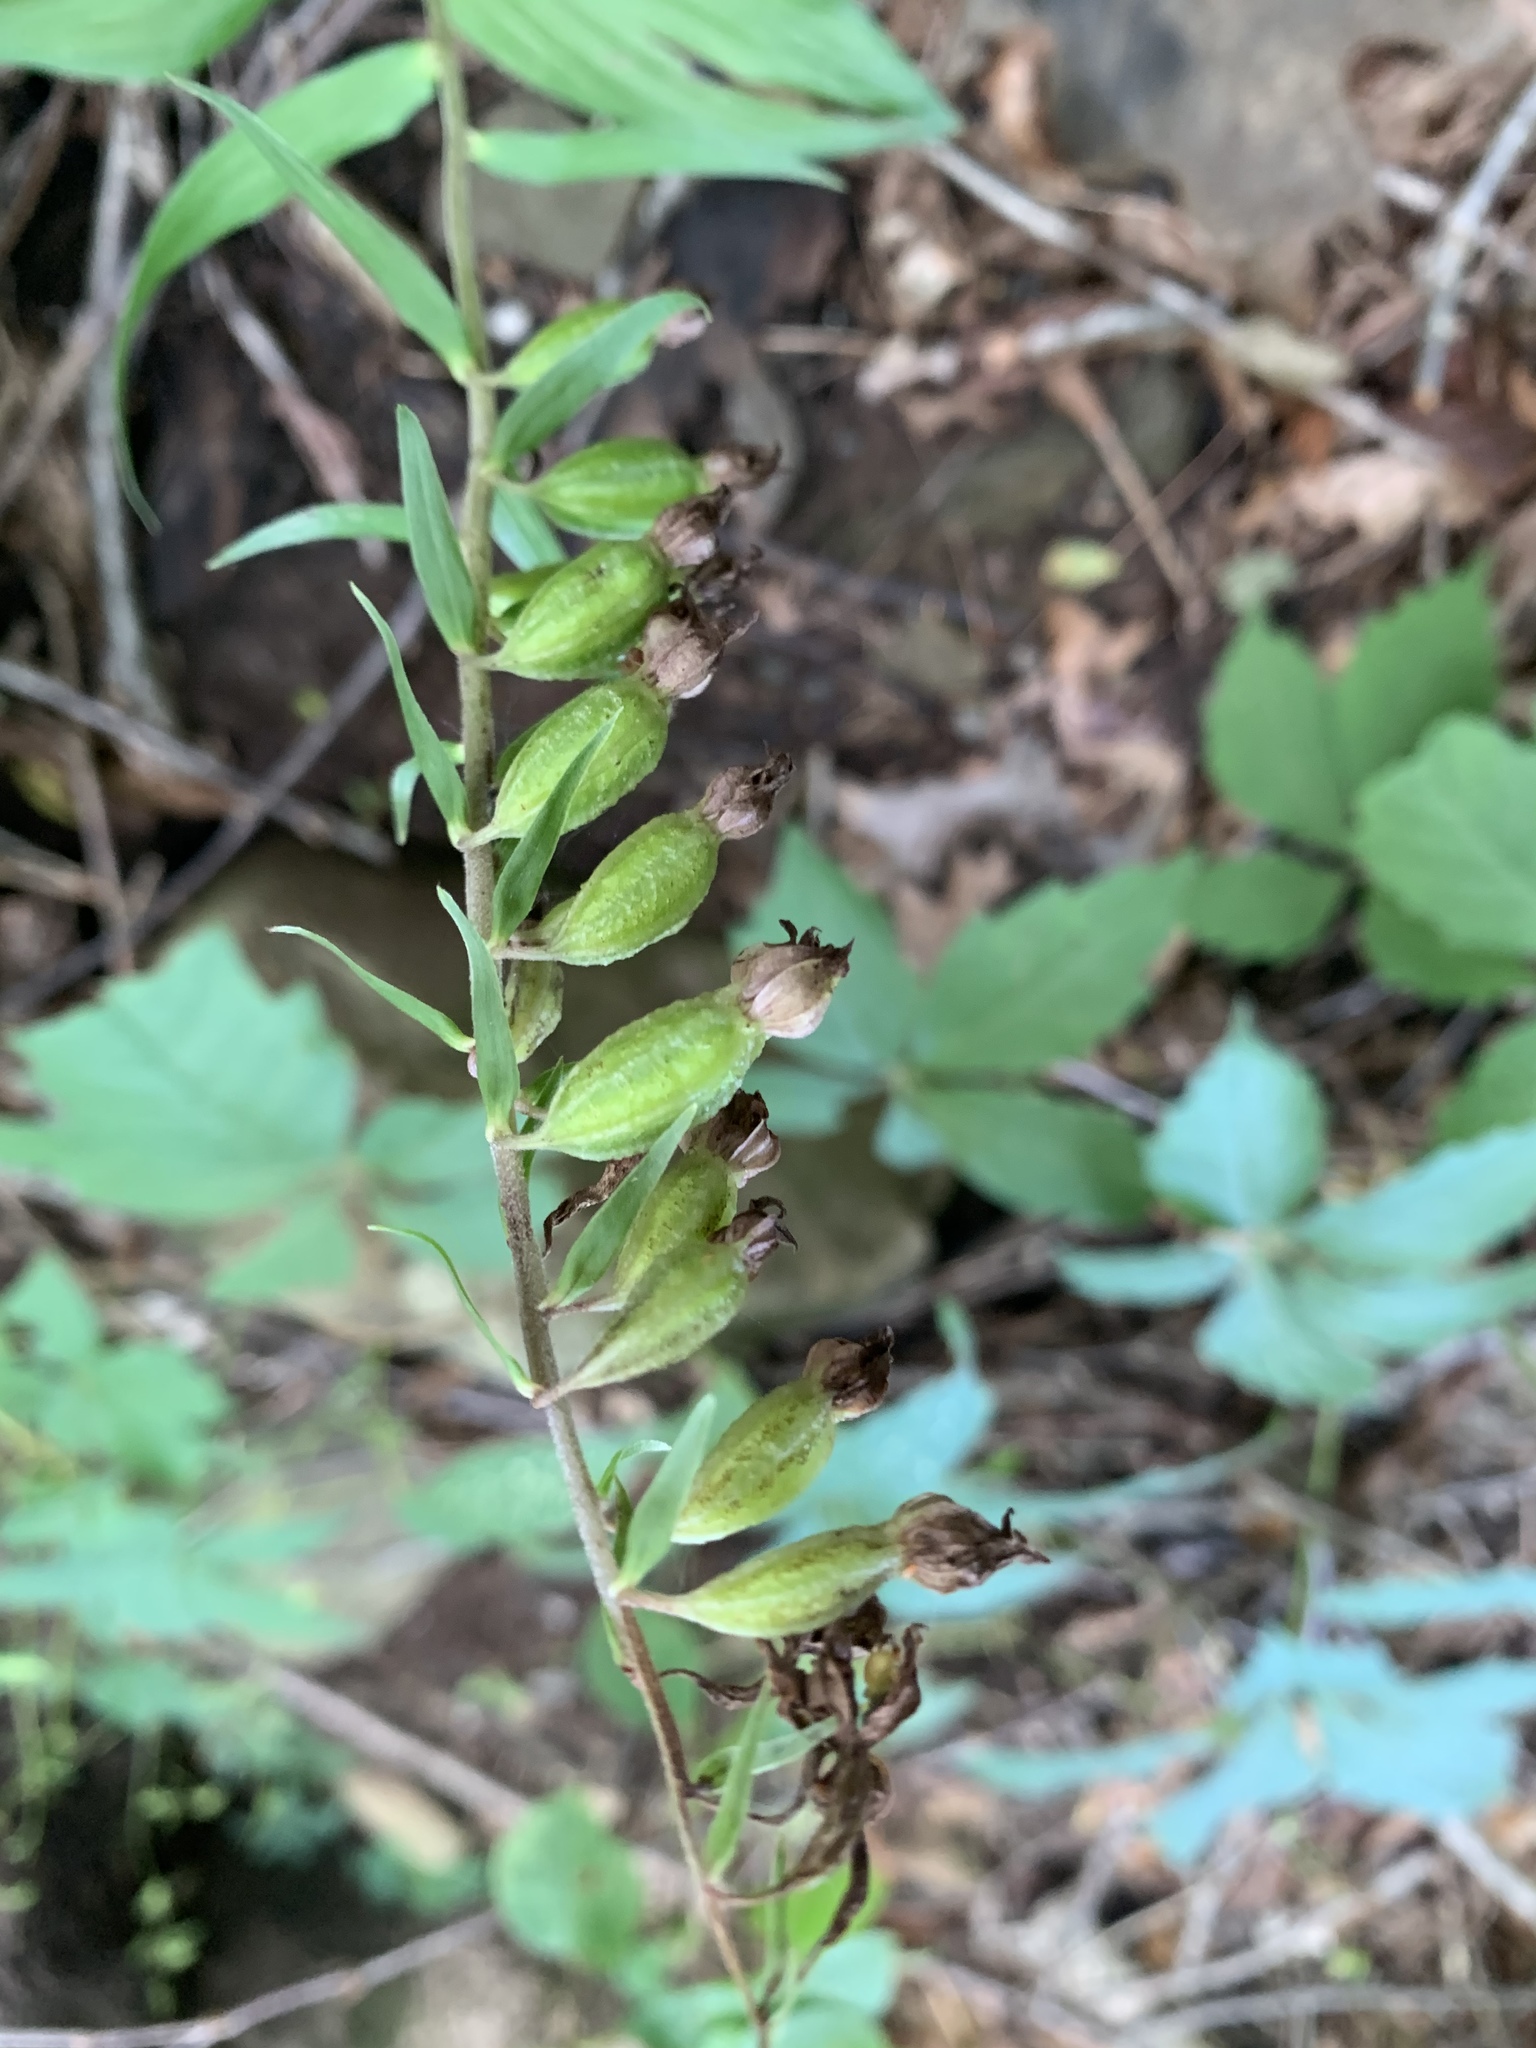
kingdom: Plantae
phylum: Tracheophyta
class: Liliopsida
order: Asparagales
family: Orchidaceae
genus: Epipactis
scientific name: Epipactis helleborine
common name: Broad-leaved helleborine
